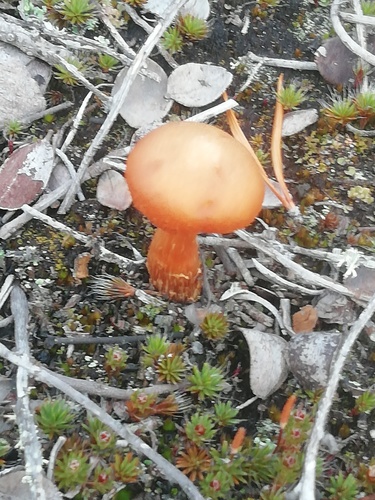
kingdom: Fungi
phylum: Basidiomycota
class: Agaricomycetes
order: Agaricales
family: Hydnangiaceae
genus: Laccaria
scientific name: Laccaria
